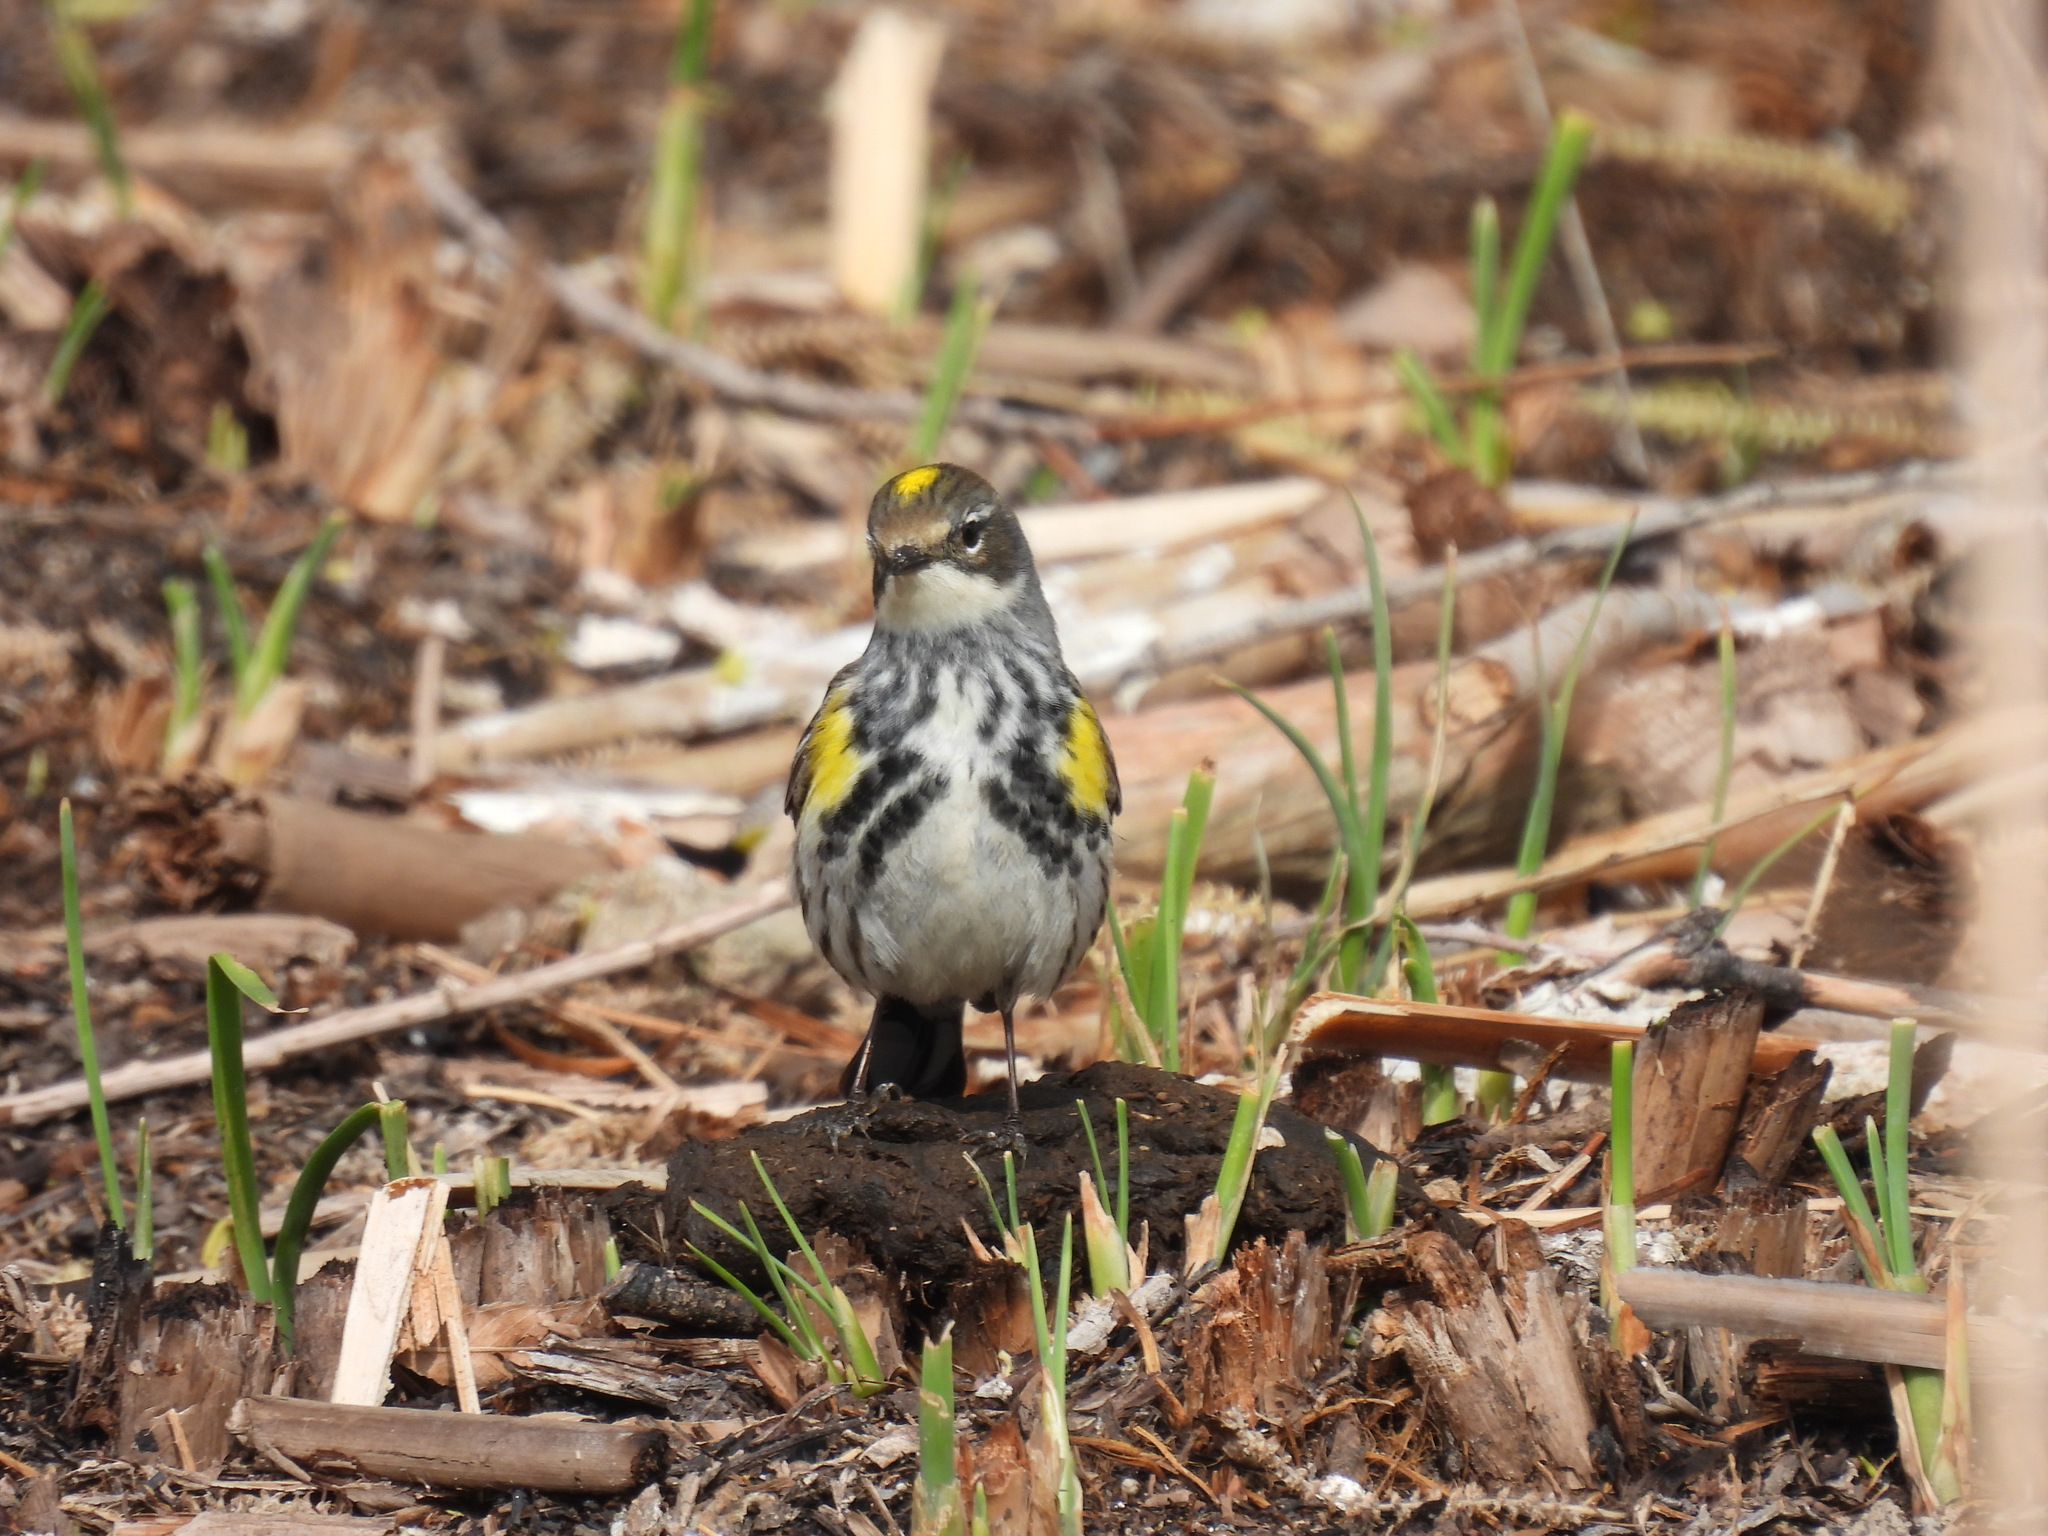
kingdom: Animalia
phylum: Chordata
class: Aves
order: Passeriformes
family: Parulidae
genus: Setophaga
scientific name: Setophaga coronata
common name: Myrtle warbler
